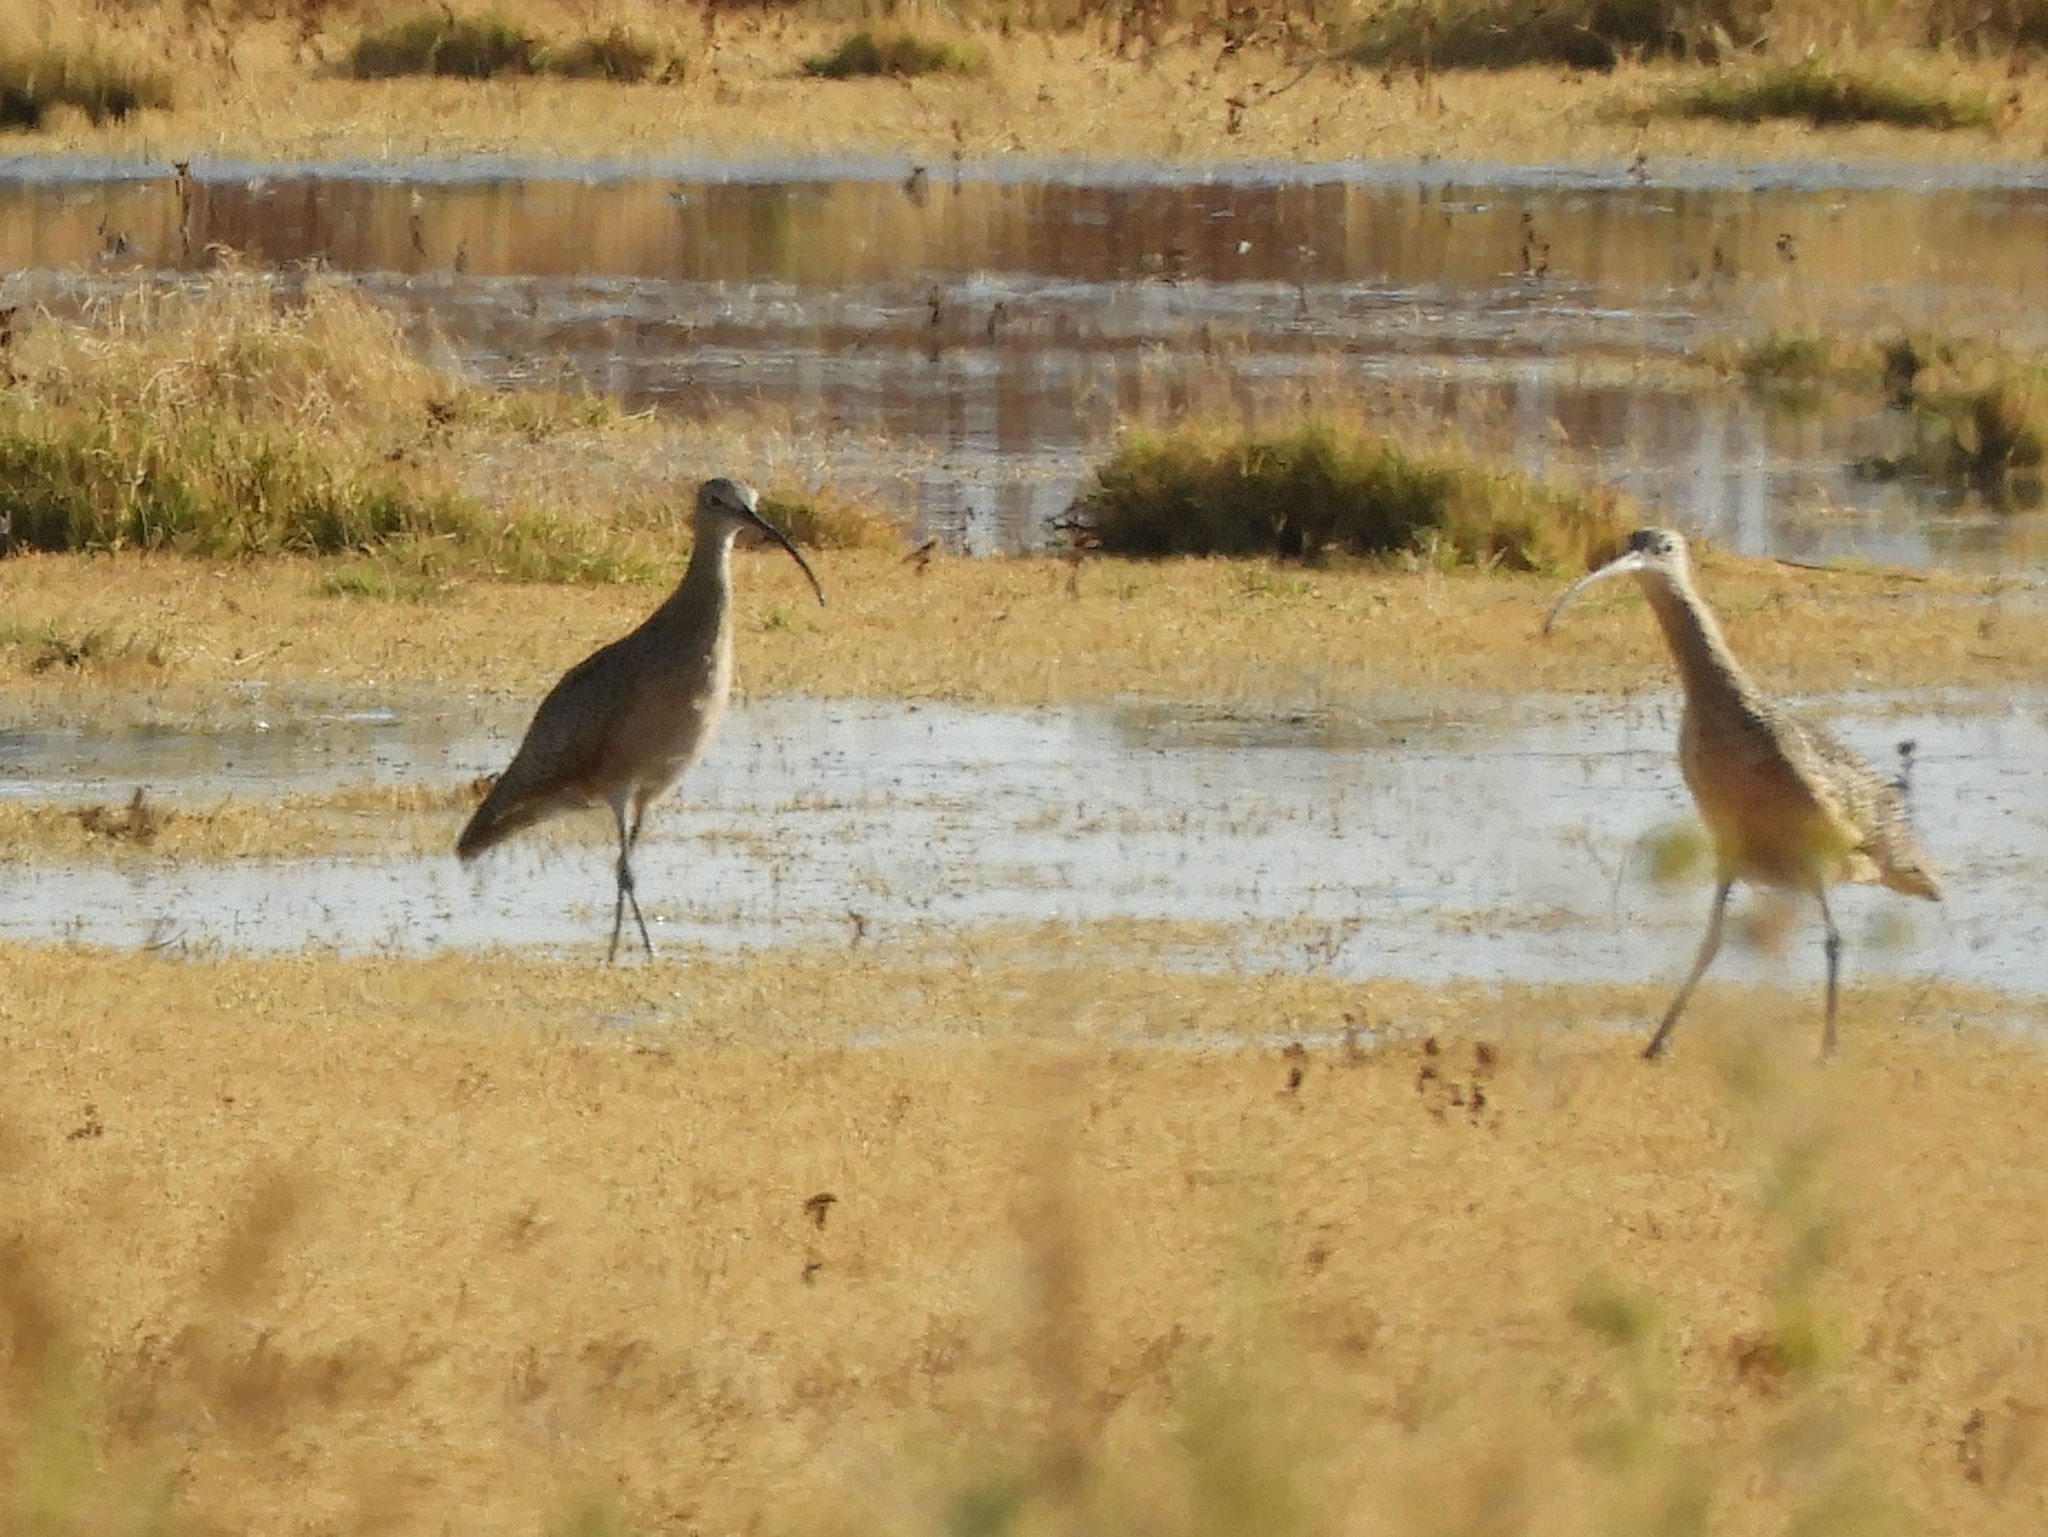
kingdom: Animalia
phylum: Chordata
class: Aves
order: Charadriiformes
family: Scolopacidae
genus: Numenius
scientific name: Numenius americanus
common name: Long-billed curlew
